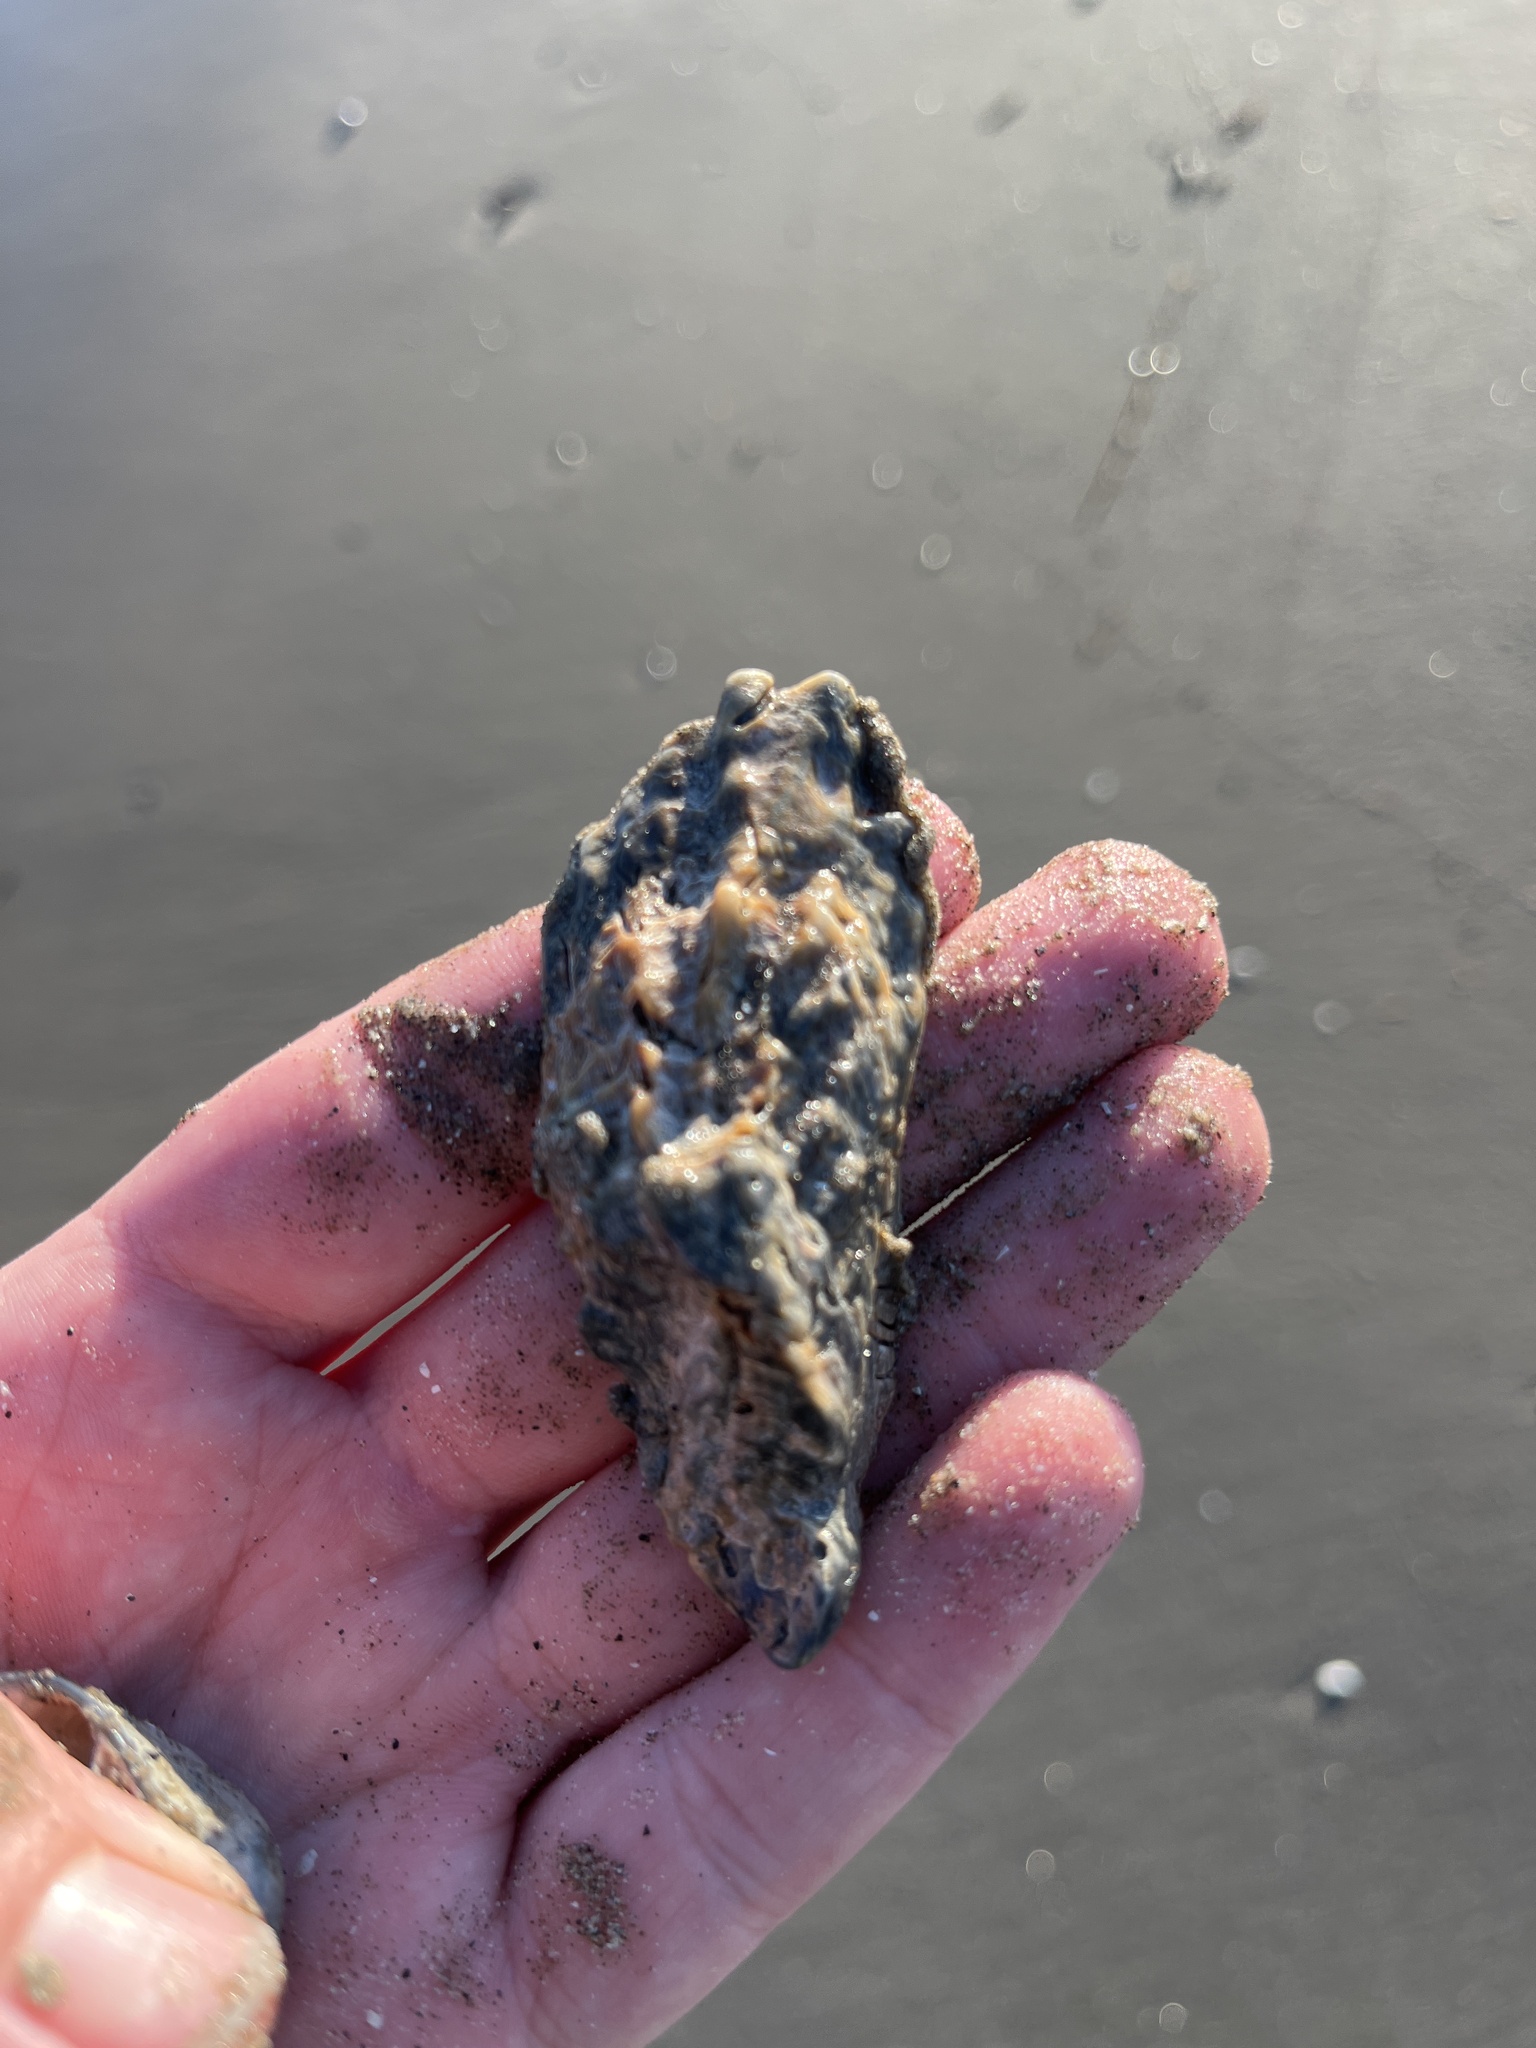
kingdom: Animalia
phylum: Mollusca
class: Bivalvia
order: Ostreida
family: Ostreidae
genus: Crassostrea
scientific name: Crassostrea virginica
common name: American oyster
